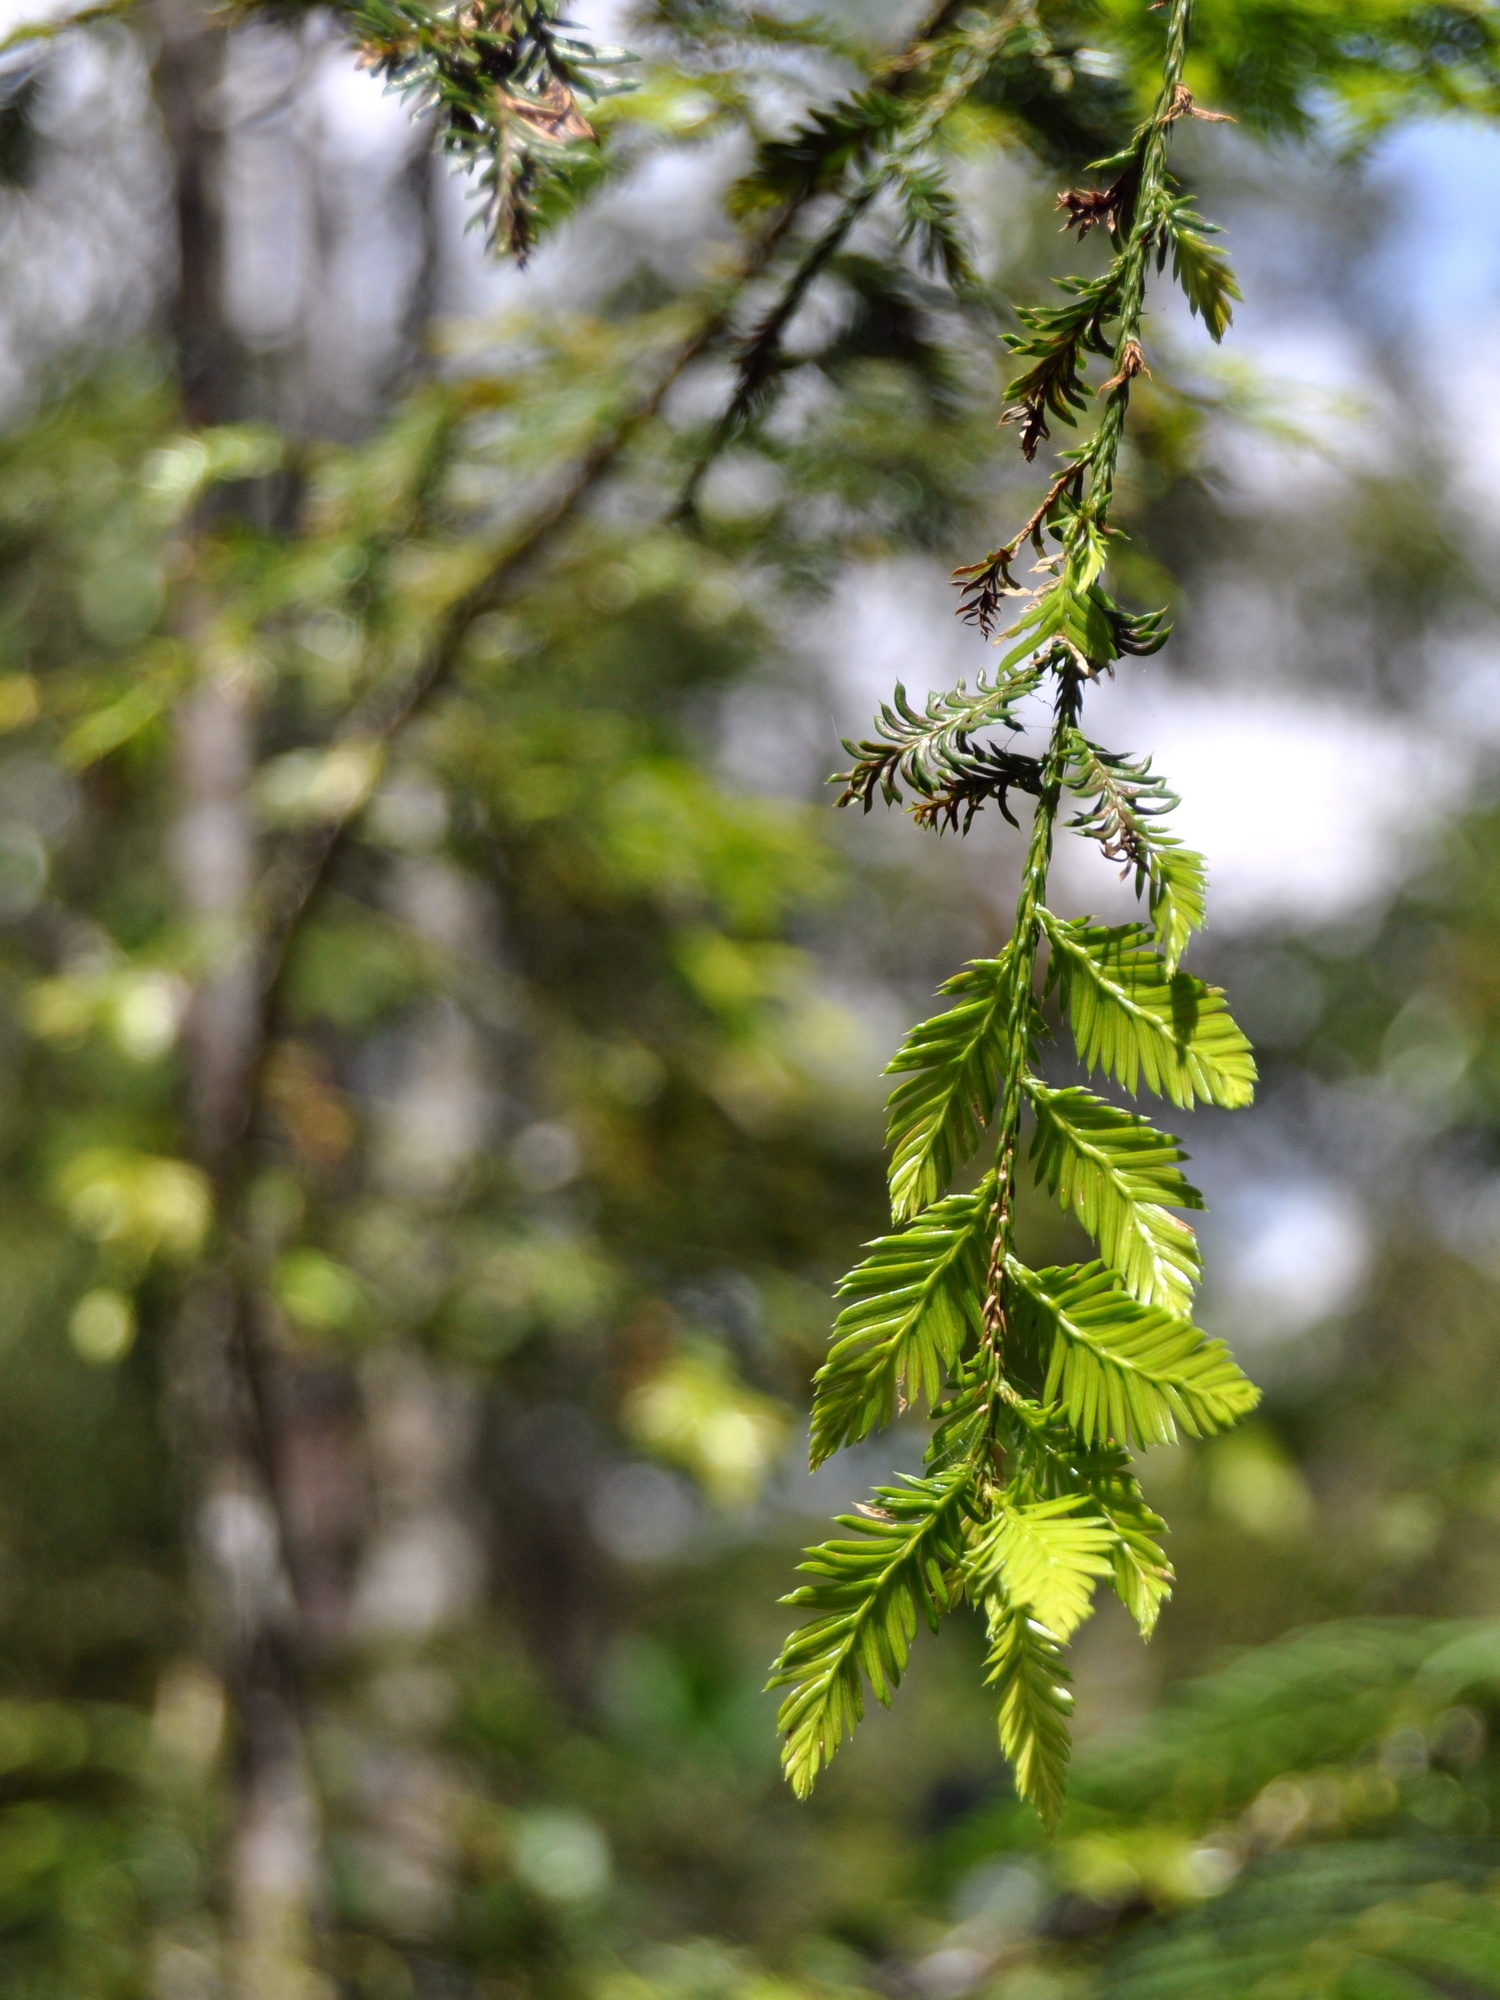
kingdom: Plantae
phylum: Tracheophyta
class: Pinopsida
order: Pinales
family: Podocarpaceae
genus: Dacrycarpus
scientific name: Dacrycarpus imbricatus
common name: Pine
